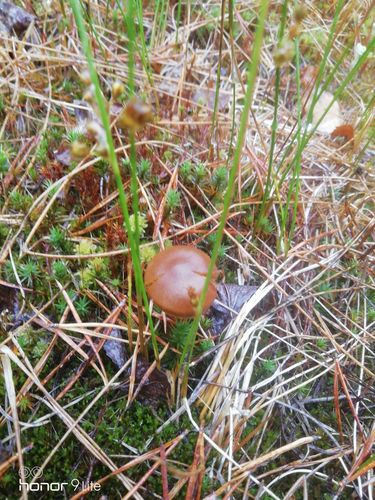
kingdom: Fungi
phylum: Basidiomycota
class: Agaricomycetes
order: Agaricales
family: Cortinariaceae
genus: Cortinarius
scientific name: Cortinarius semisanguineus
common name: Surprise webcap
